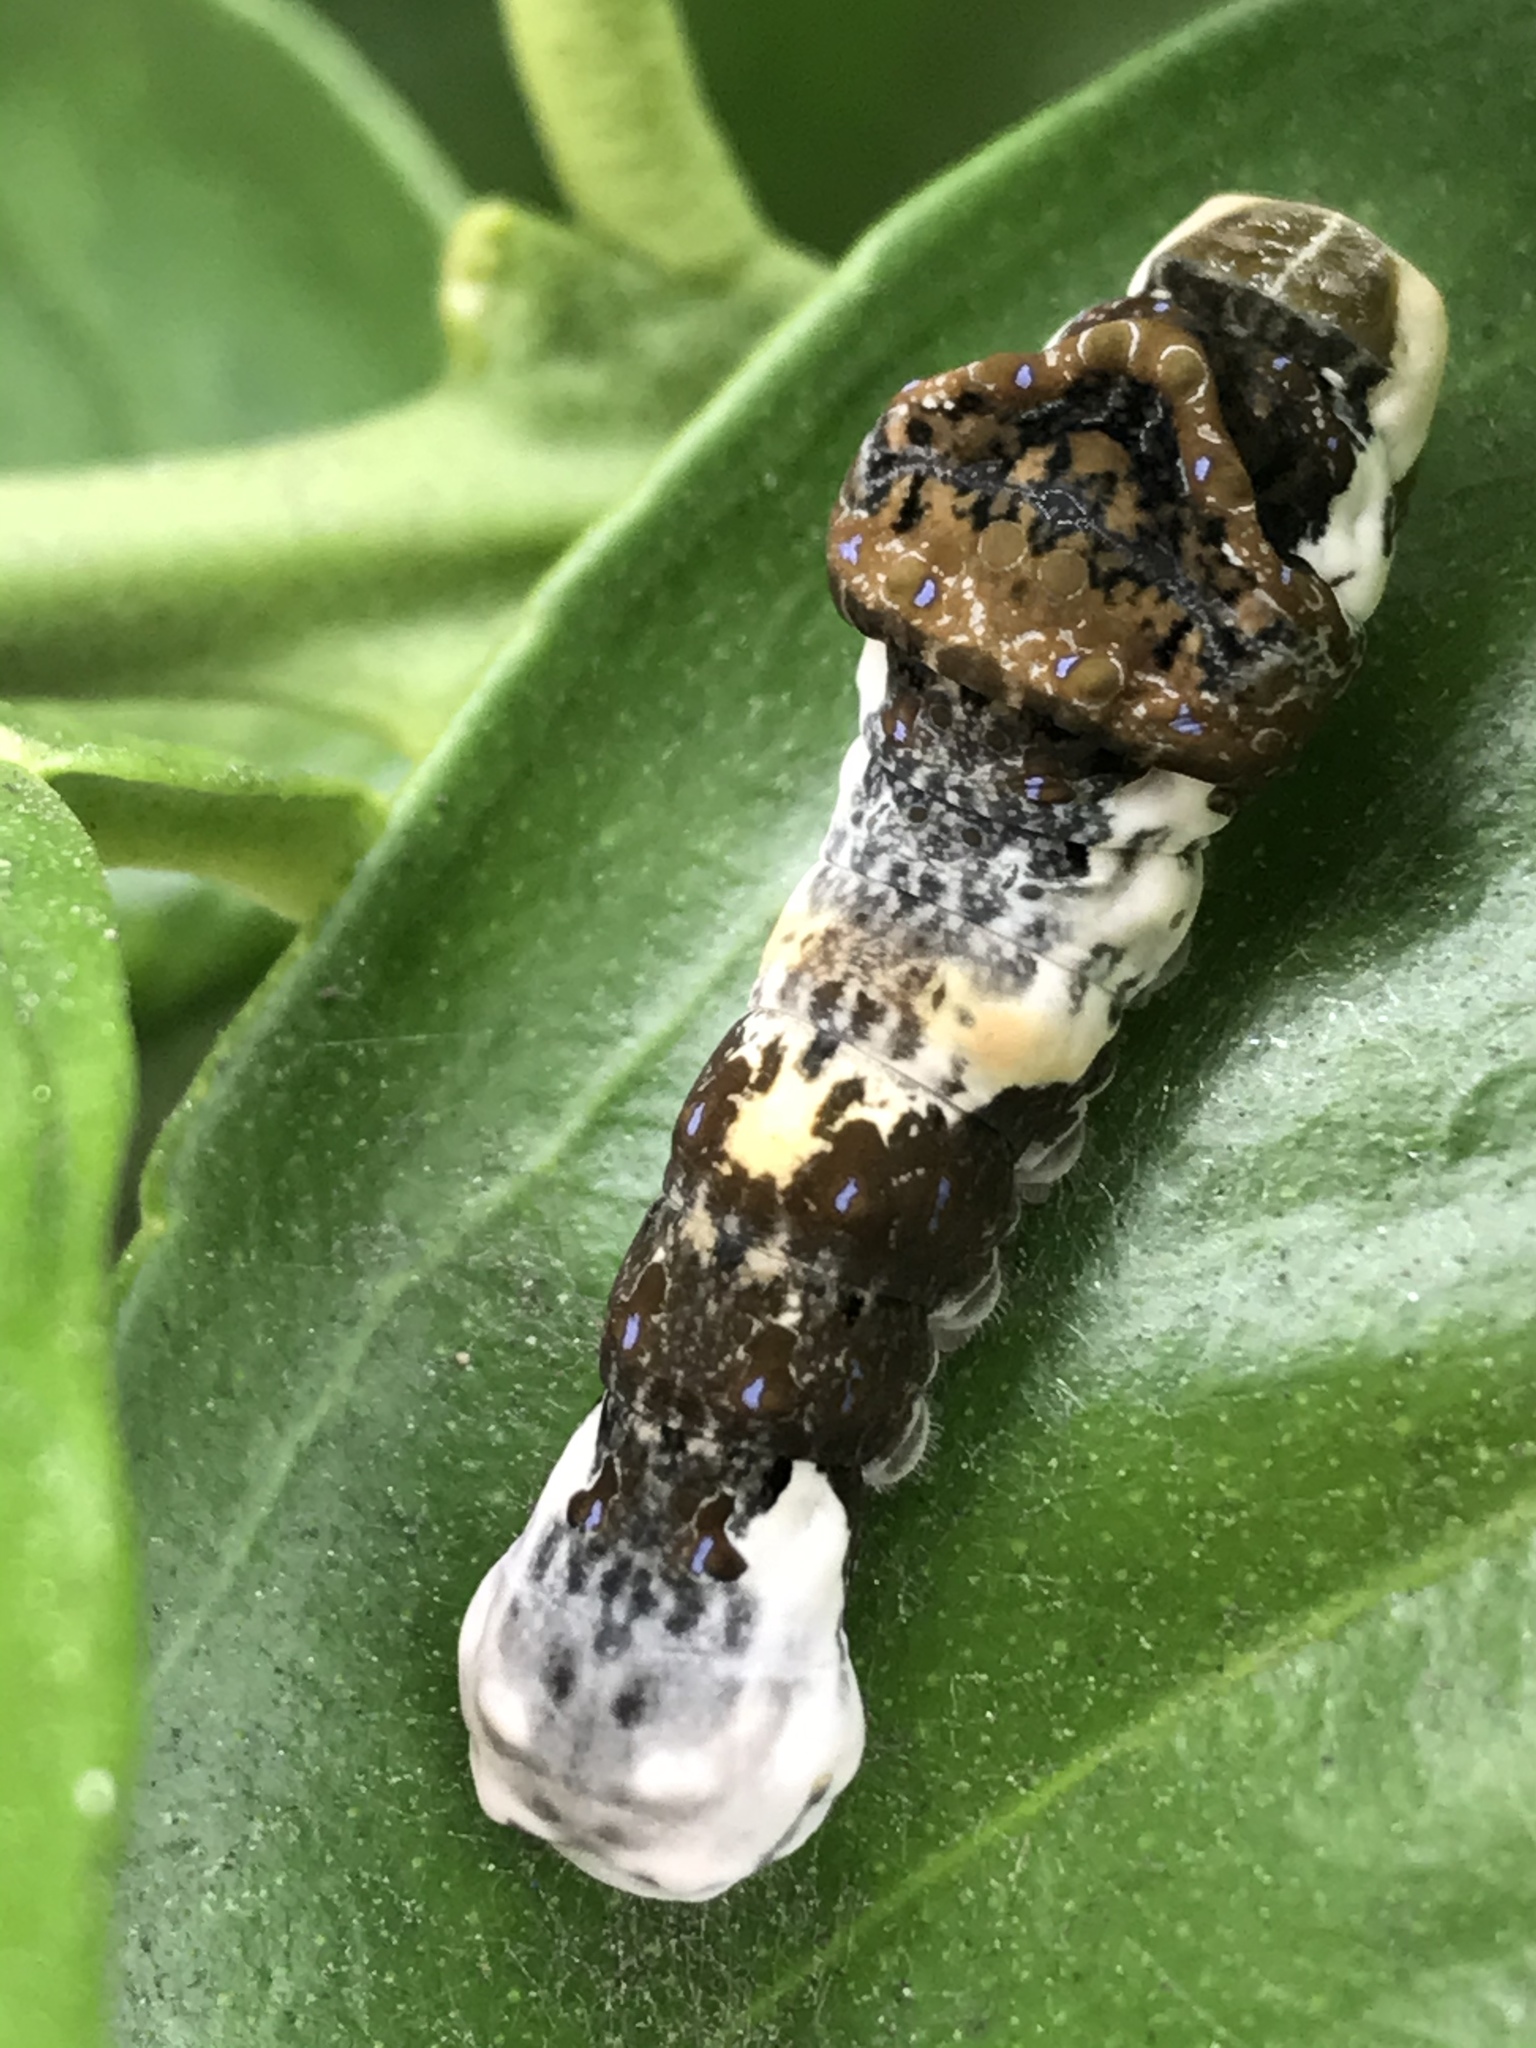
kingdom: Animalia
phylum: Arthropoda
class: Insecta
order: Lepidoptera
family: Papilionidae
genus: Papilio
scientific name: Papilio rumiko
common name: Western giant swallowtail
